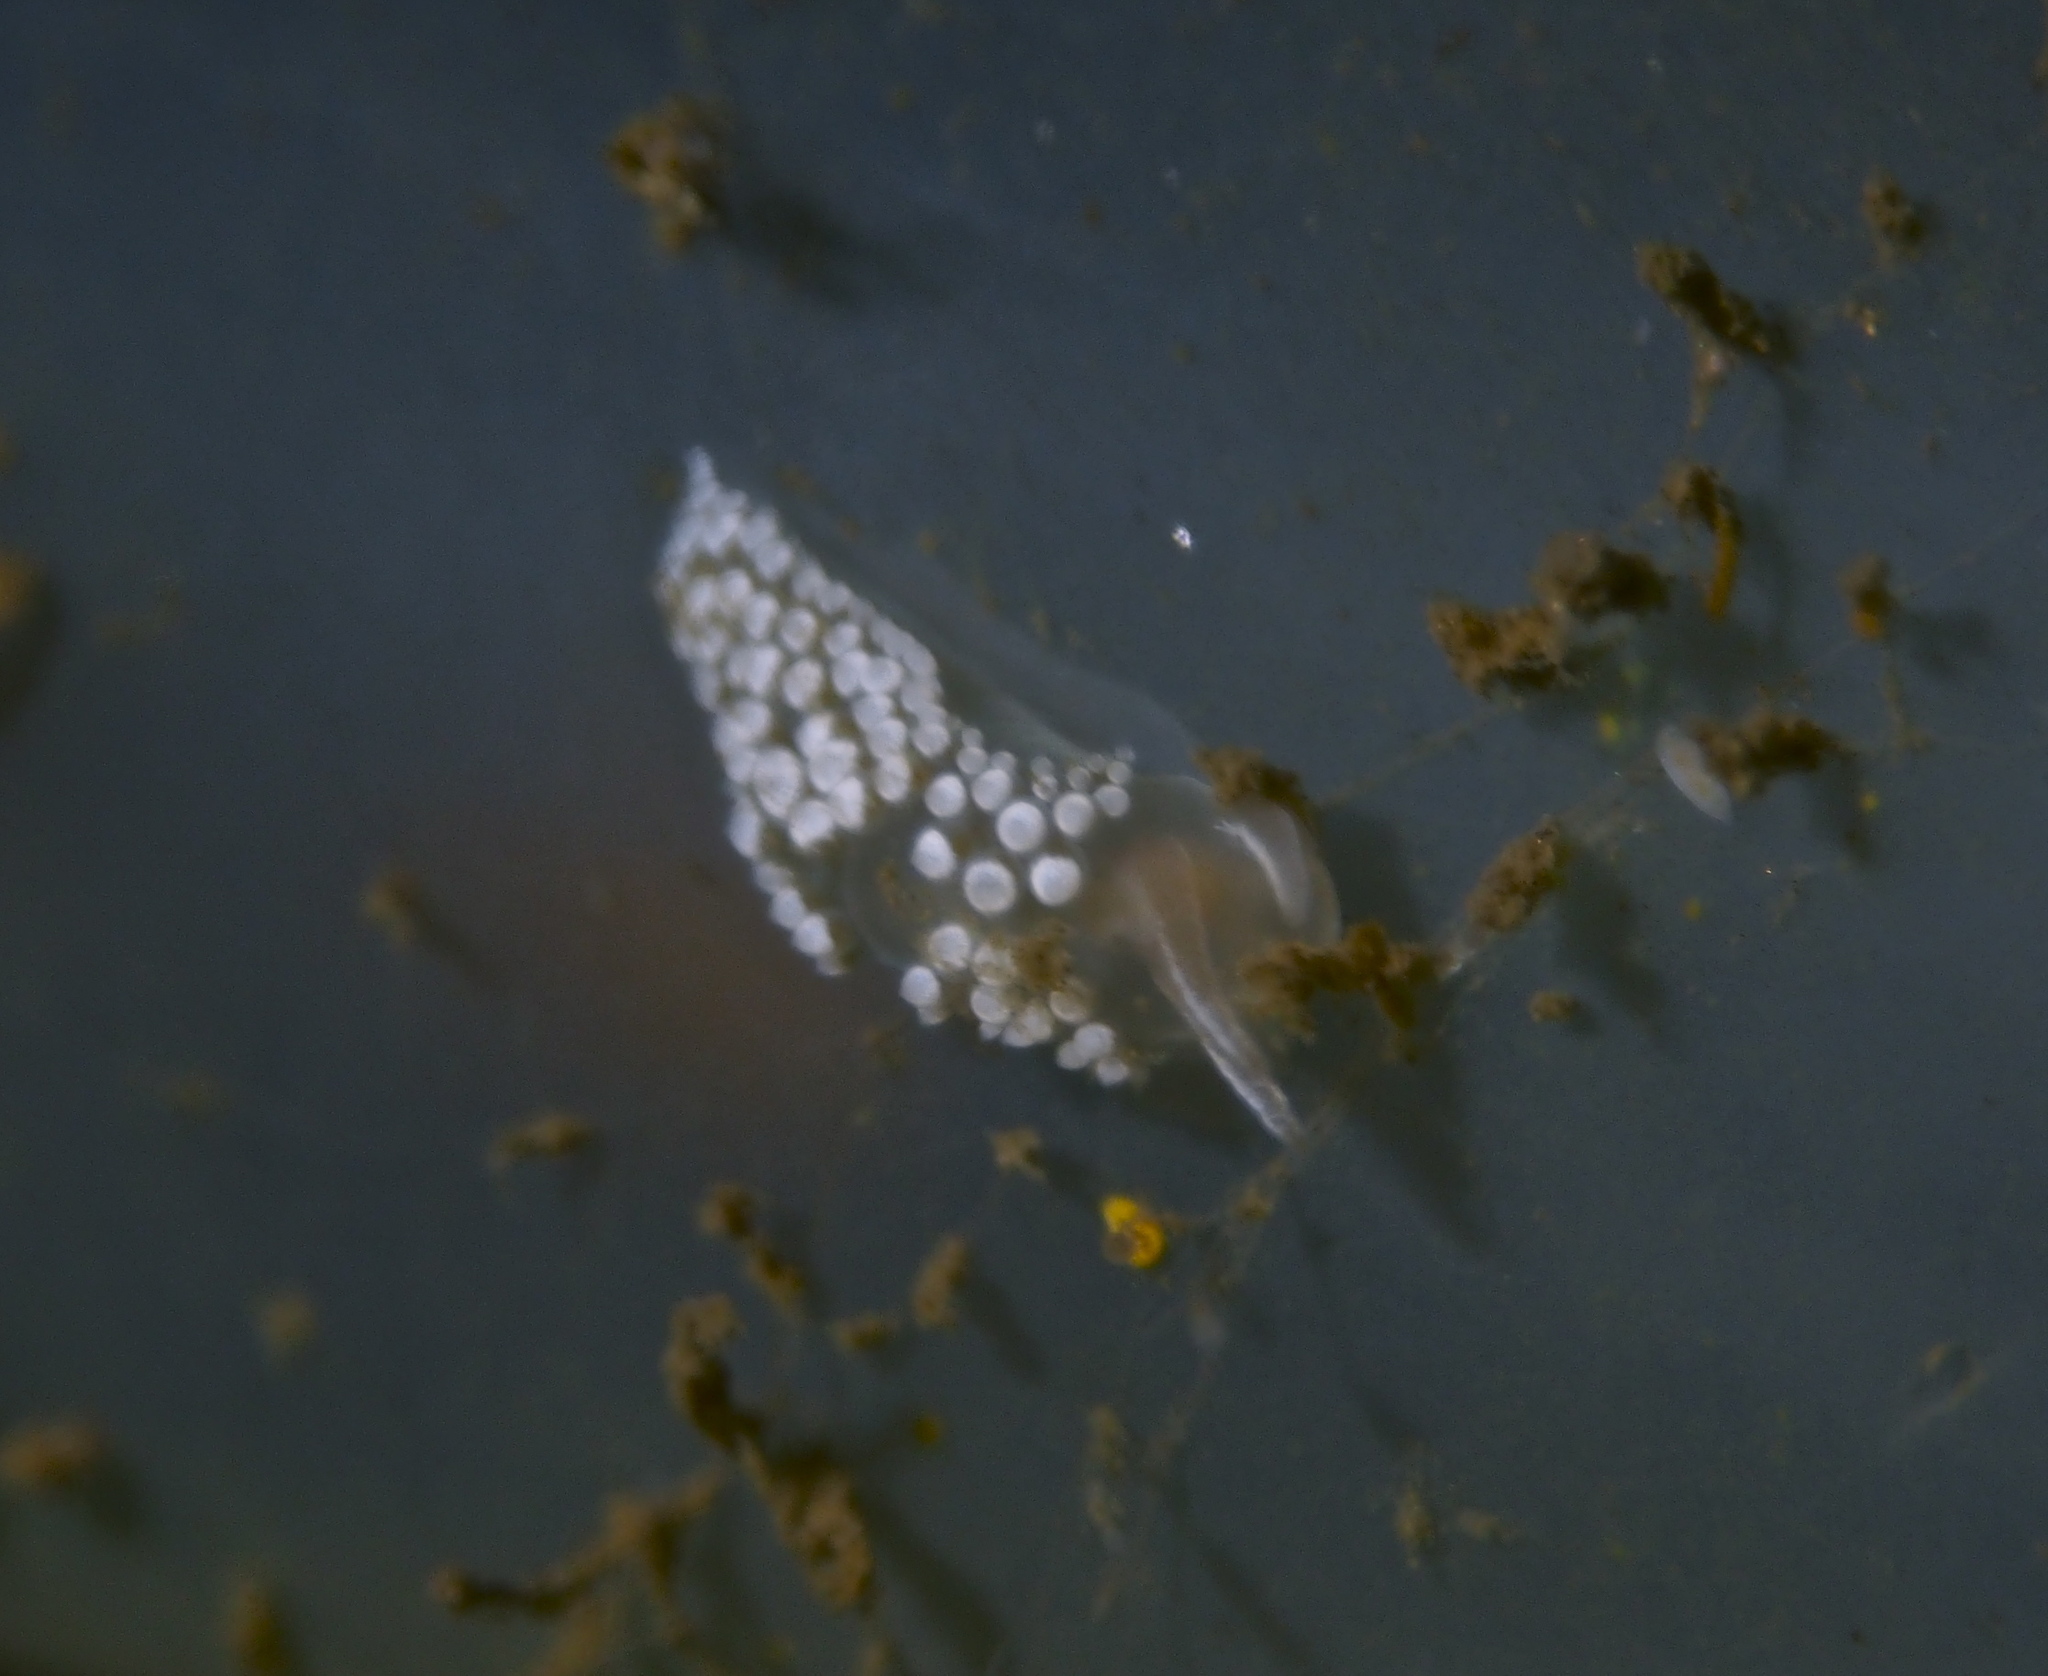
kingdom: Animalia
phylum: Mollusca
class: Gastropoda
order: Nudibranchia
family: Coryphellidae
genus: Coryphella
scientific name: Coryphella verrucosa
